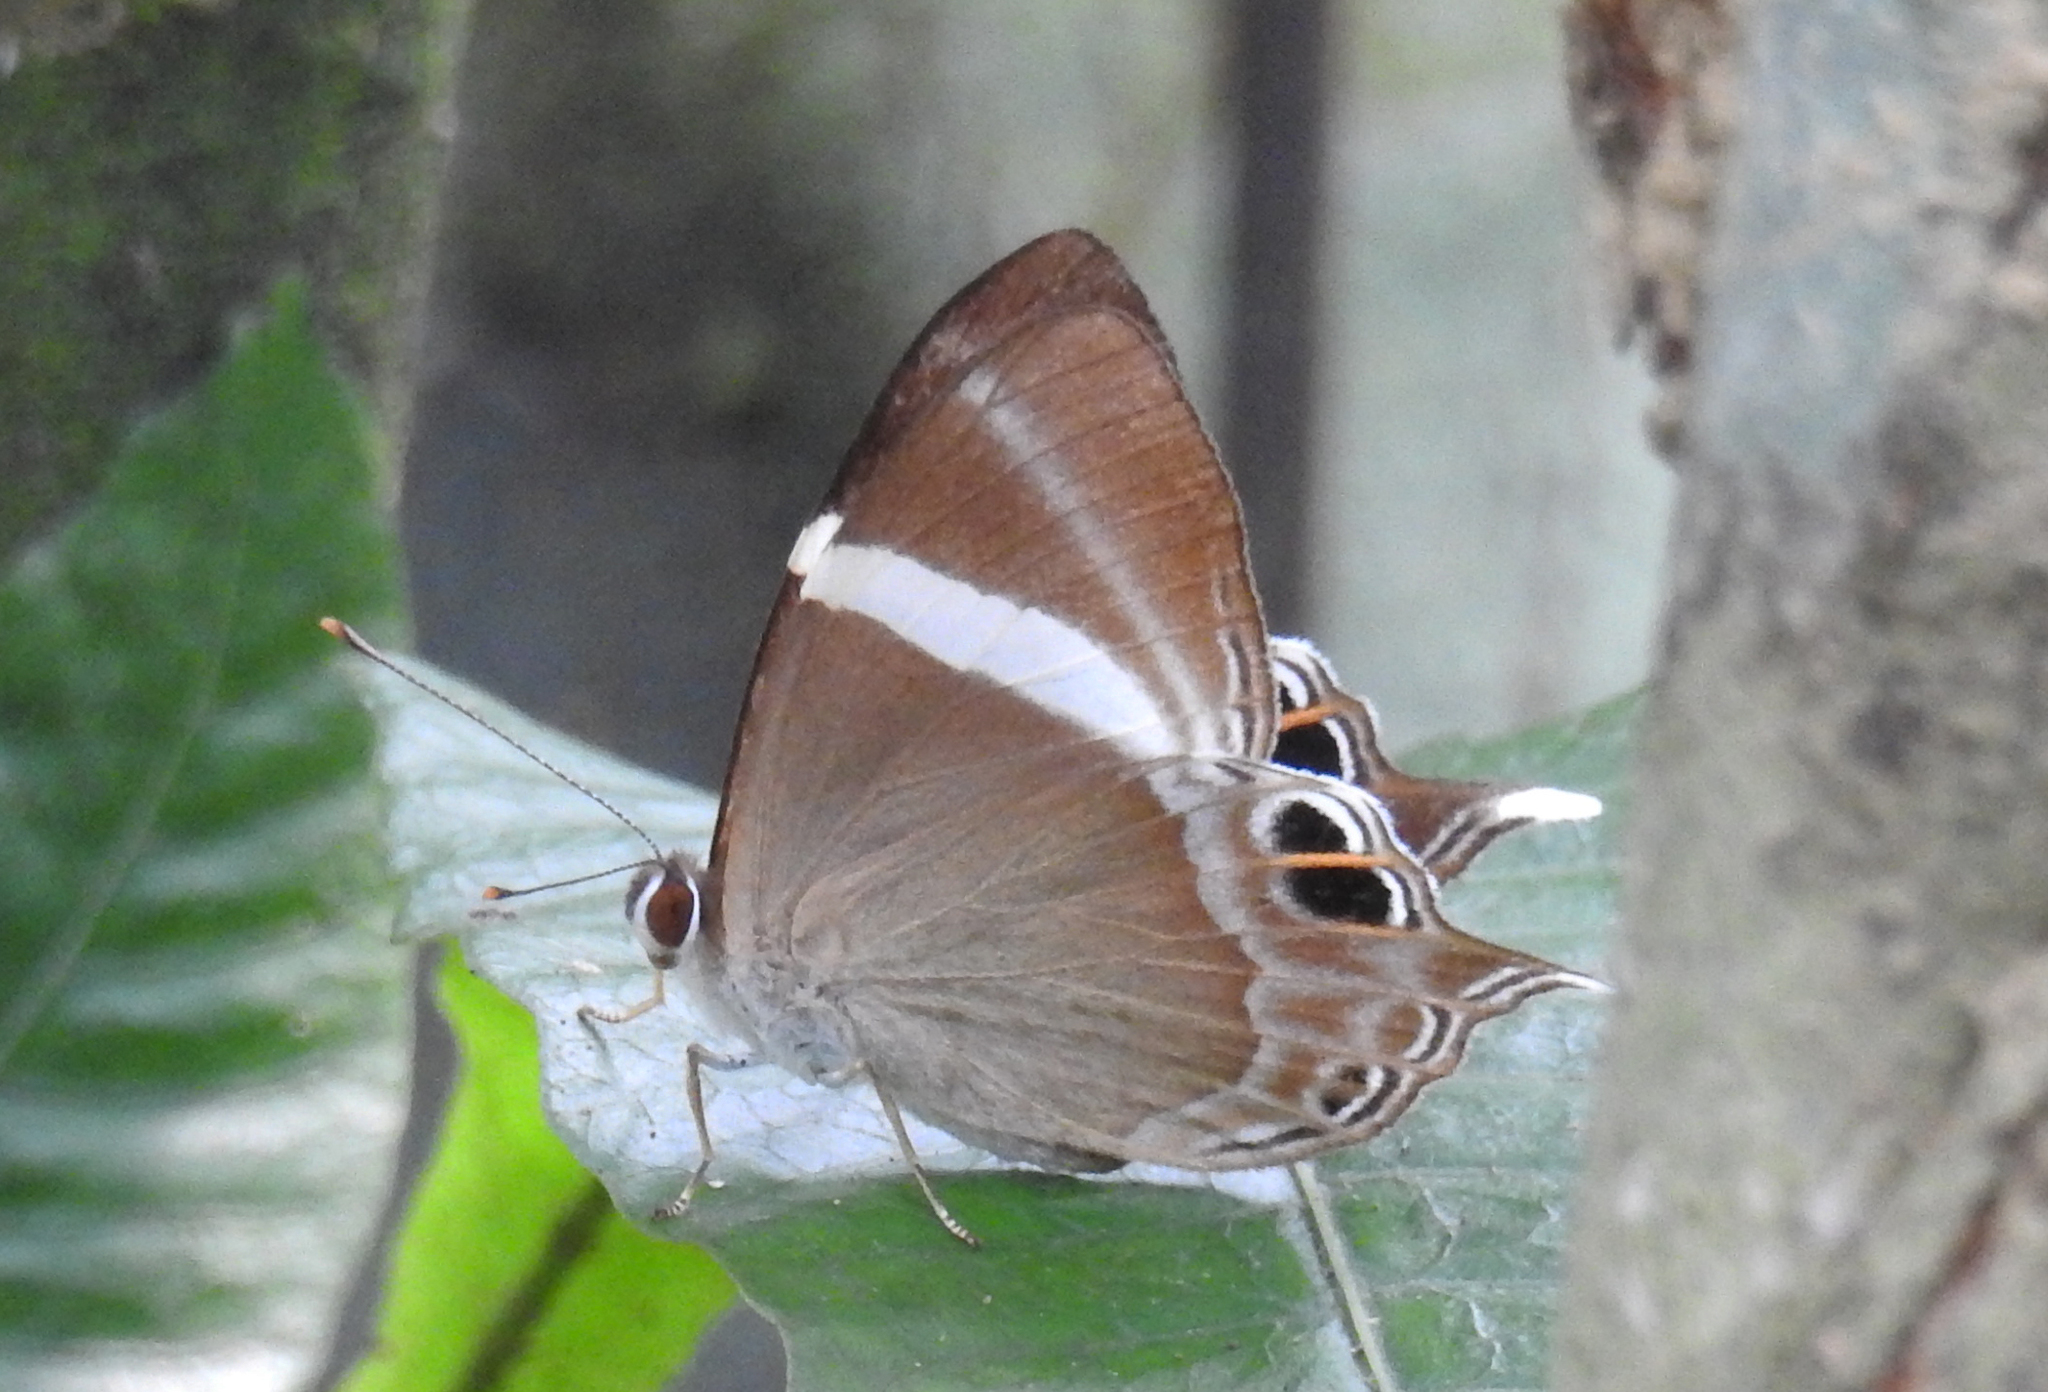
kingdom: Animalia
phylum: Arthropoda
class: Insecta
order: Lepidoptera
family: Lycaenidae
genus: Abisara
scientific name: Abisara neophron
